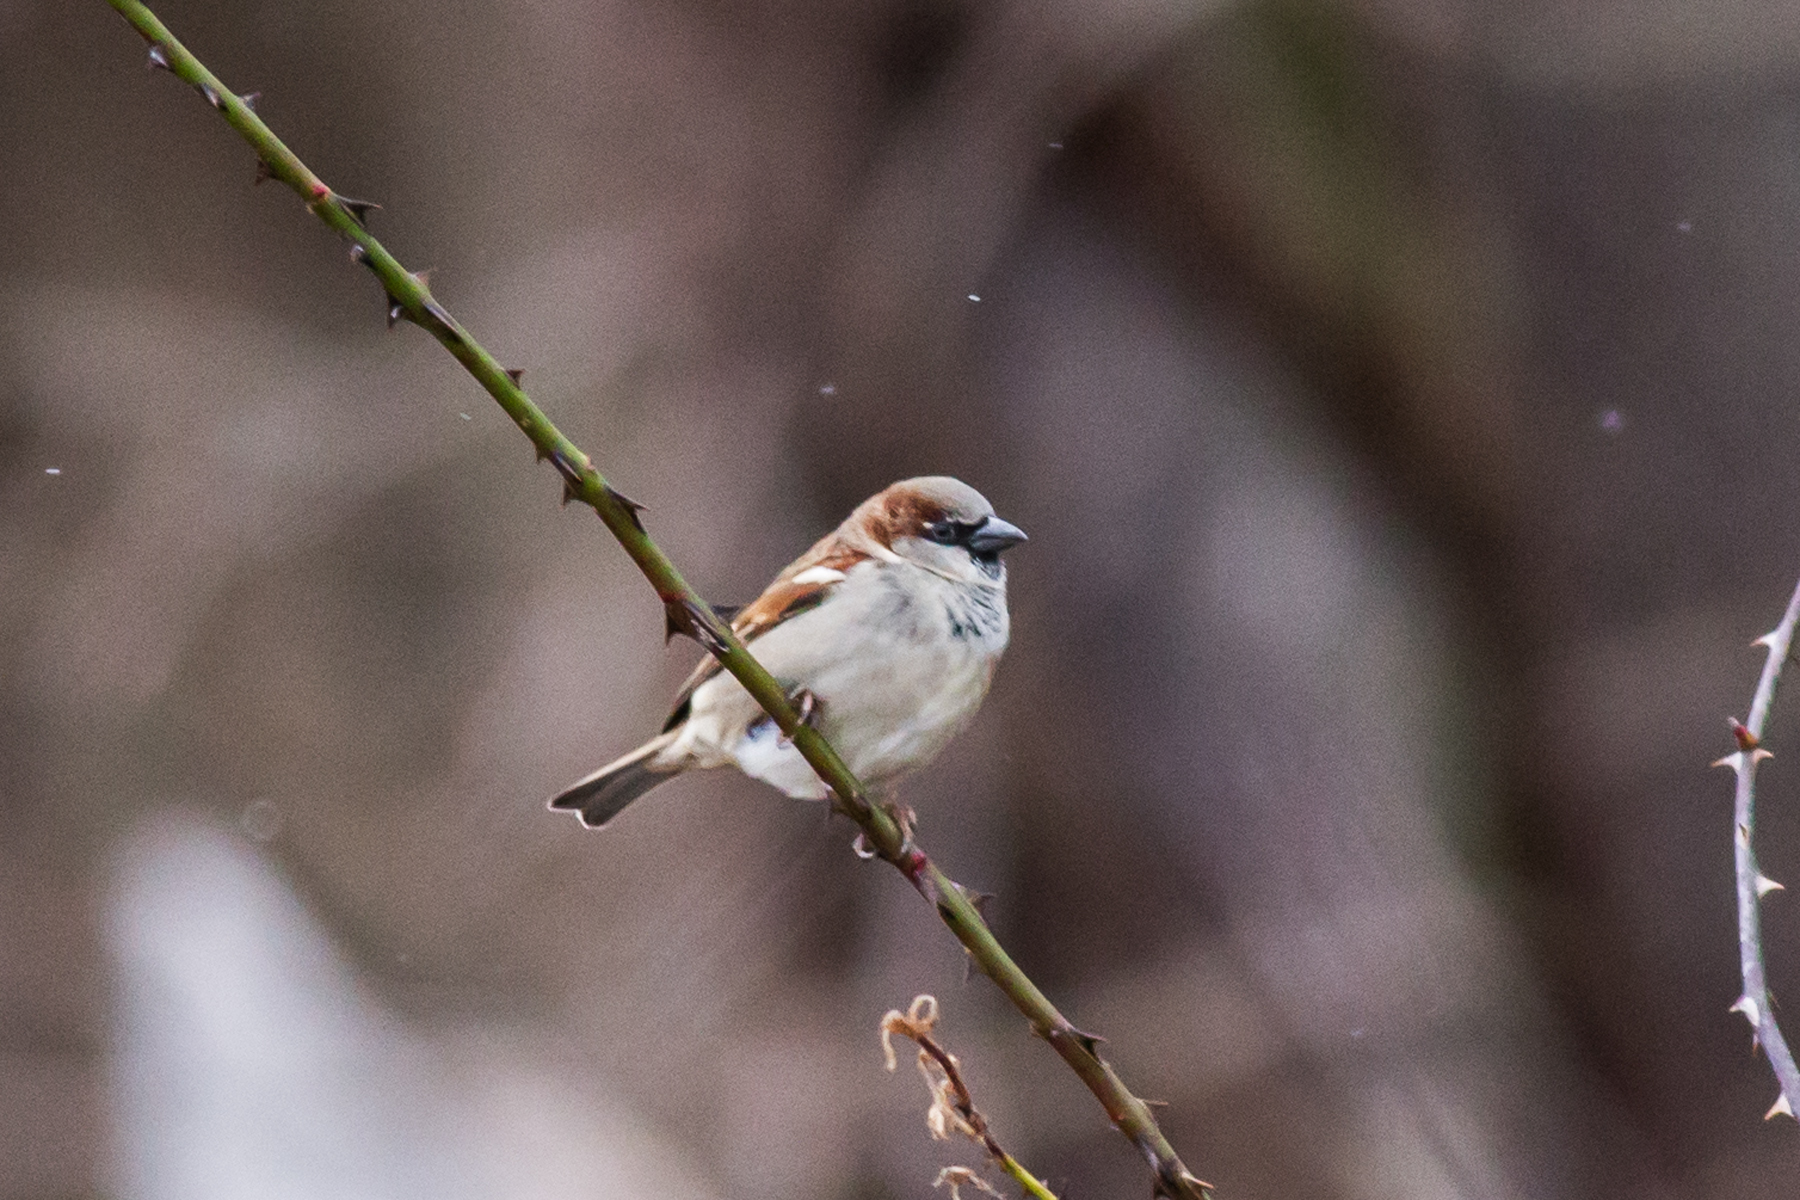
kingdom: Animalia
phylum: Chordata
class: Aves
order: Passeriformes
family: Passeridae
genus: Passer
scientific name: Passer domesticus
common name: House sparrow
